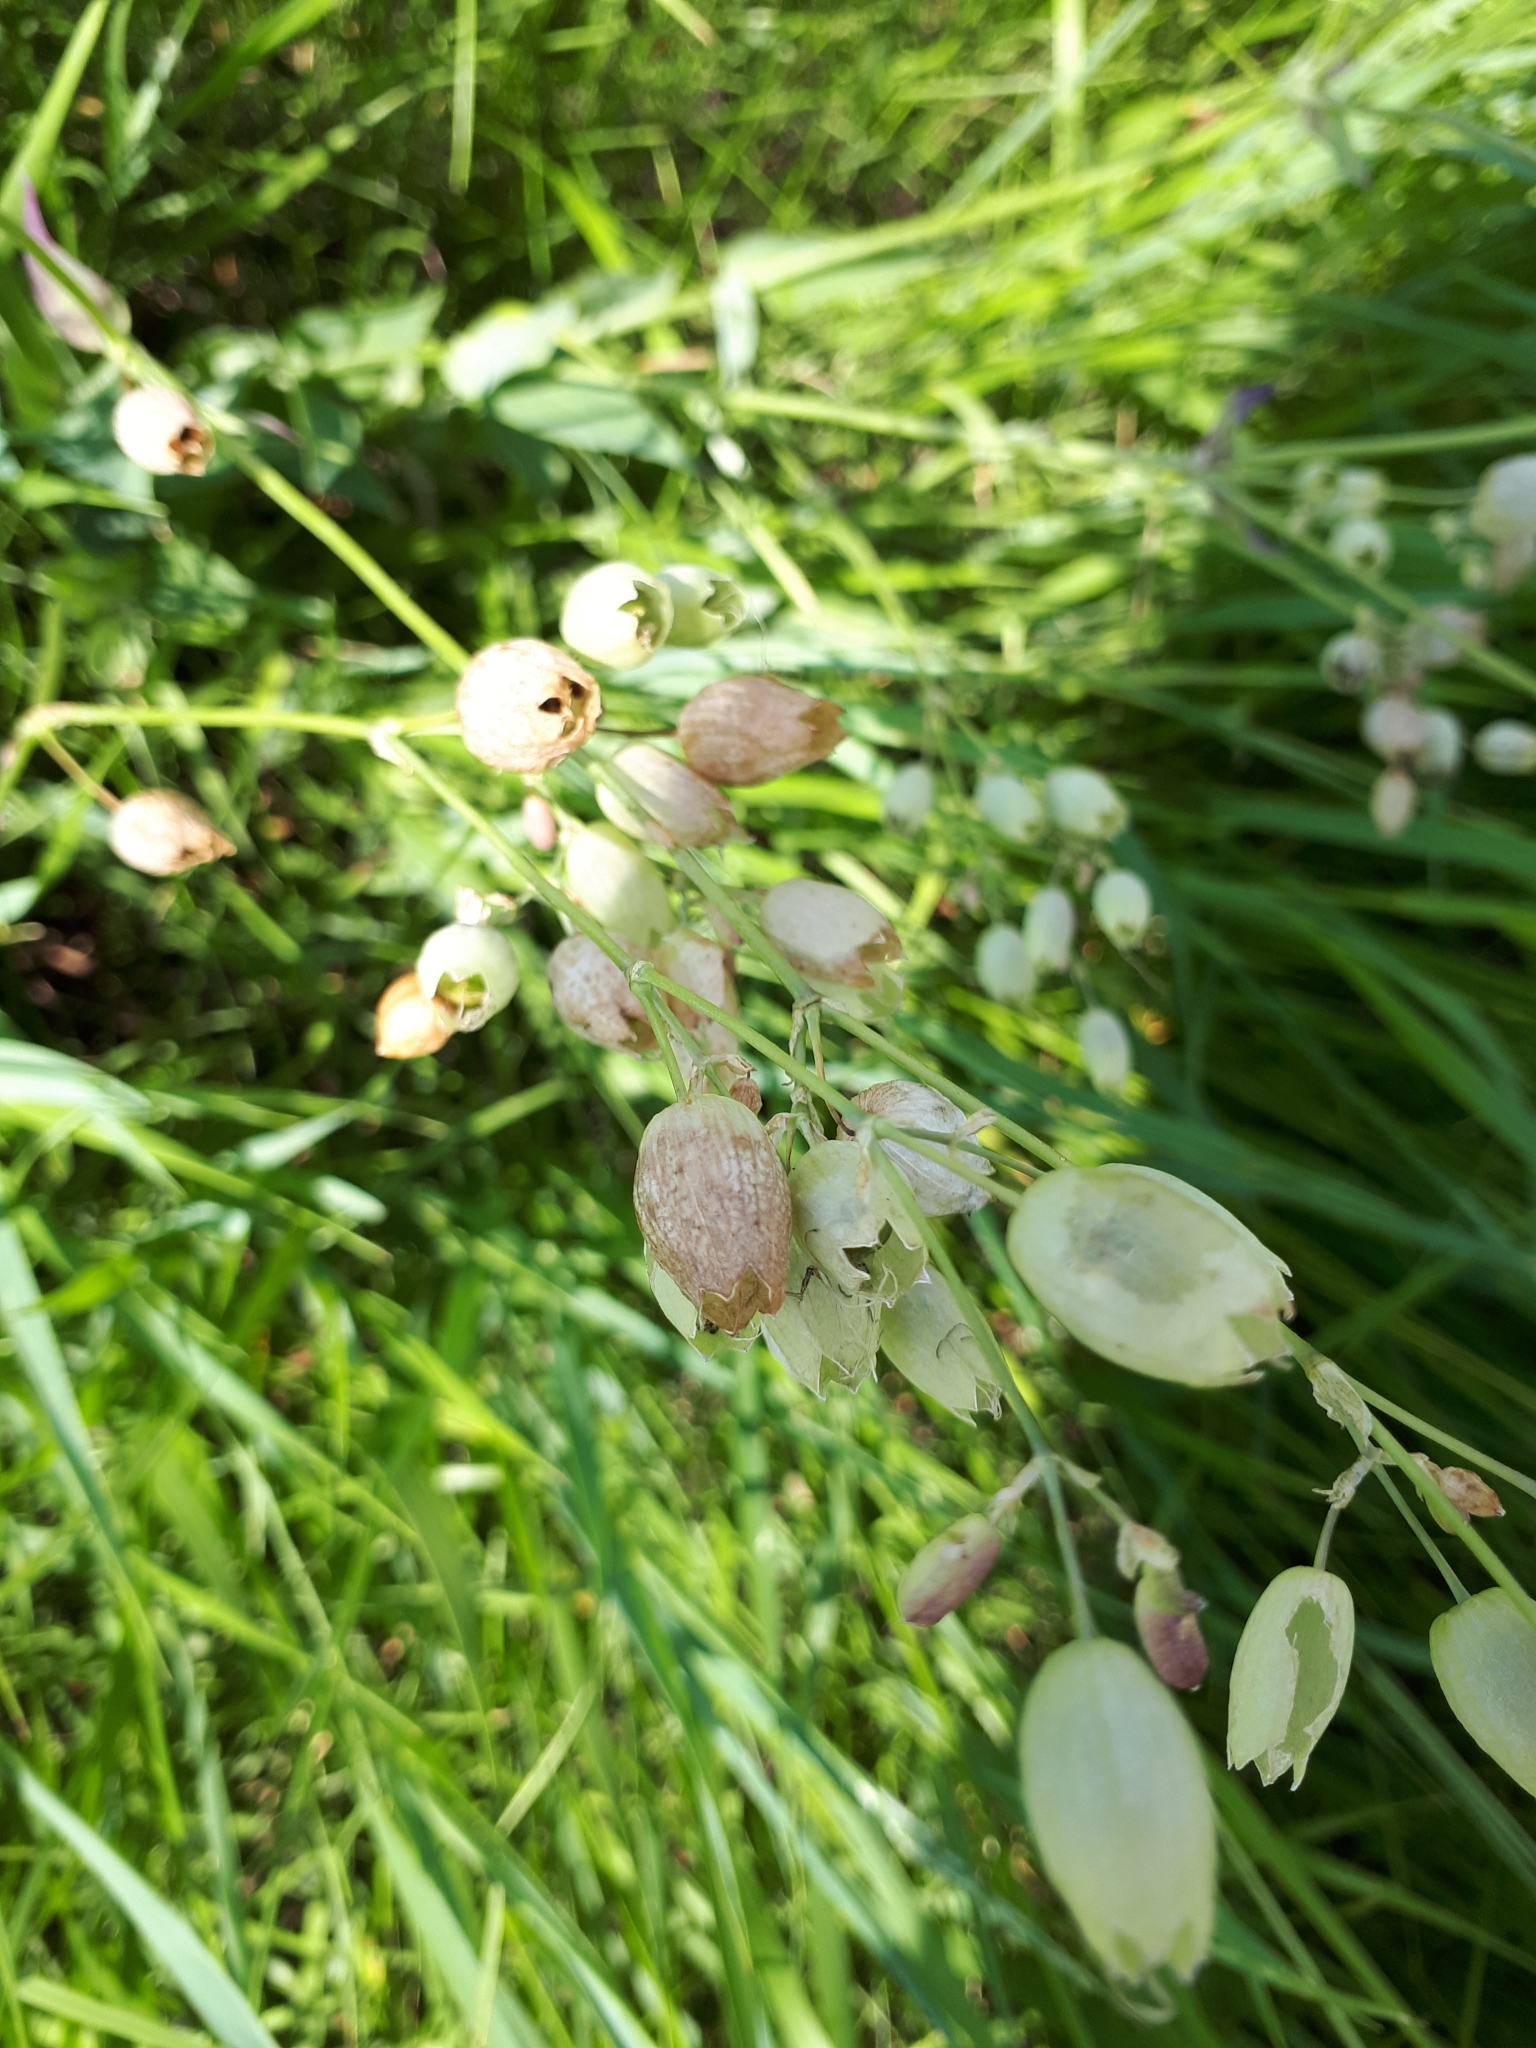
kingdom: Plantae
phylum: Tracheophyta
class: Magnoliopsida
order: Caryophyllales
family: Caryophyllaceae
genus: Silene
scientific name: Silene vulgaris
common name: Bladder campion
